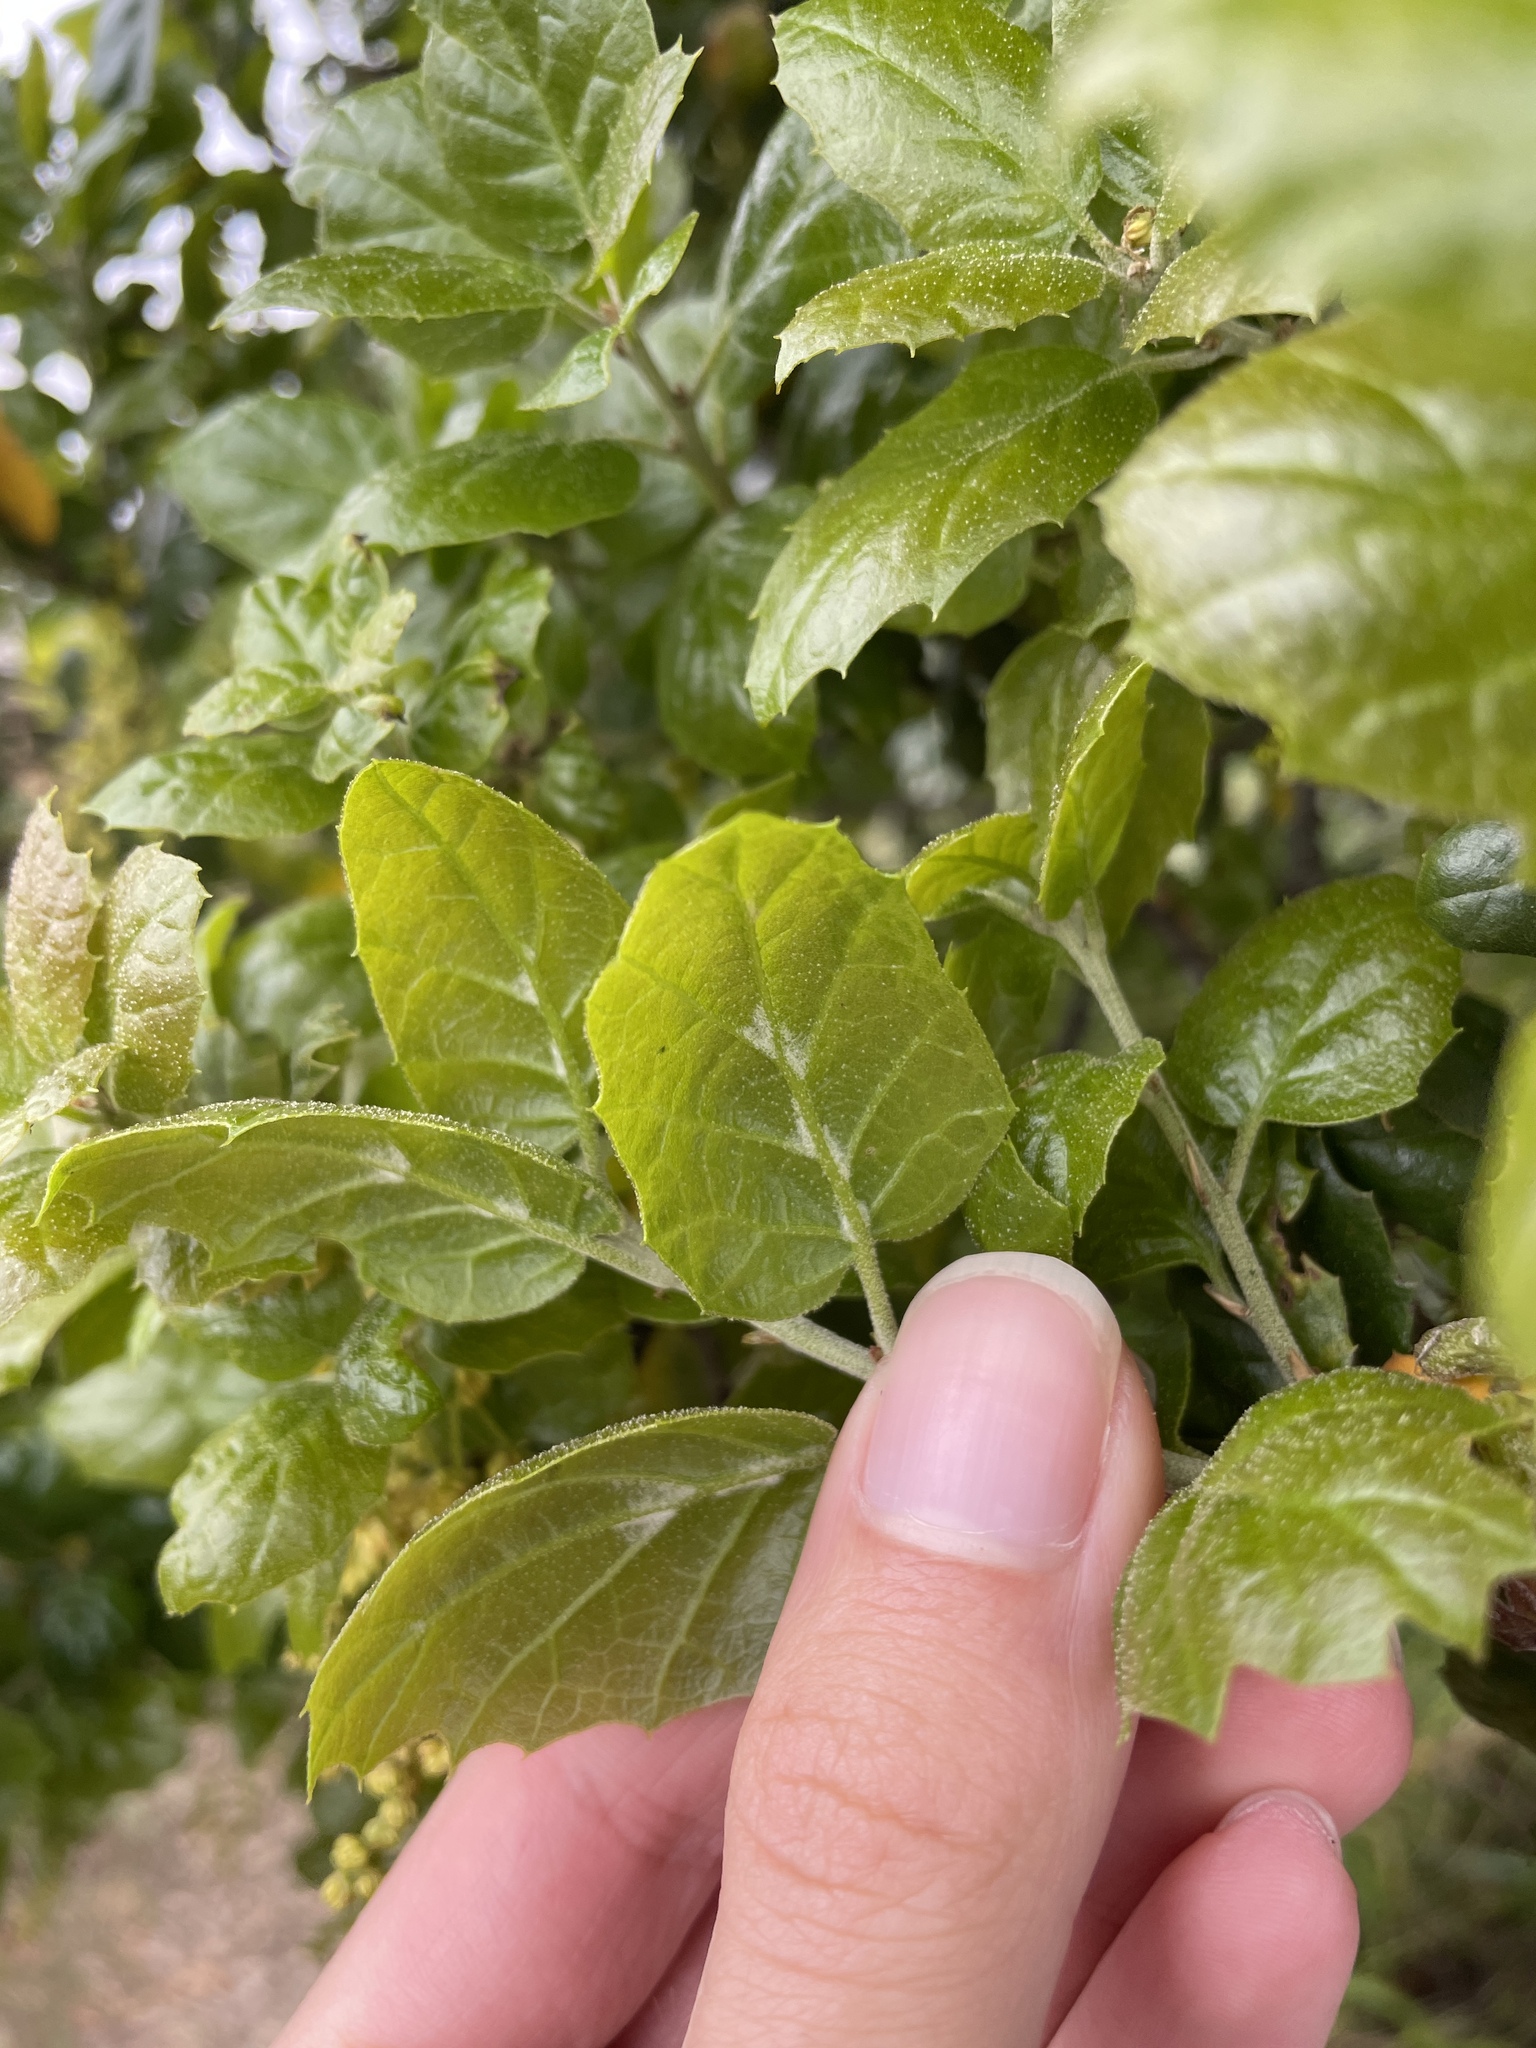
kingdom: Plantae
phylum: Tracheophyta
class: Magnoliopsida
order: Fagales
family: Fagaceae
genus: Quercus
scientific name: Quercus agrifolia
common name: California live oak
